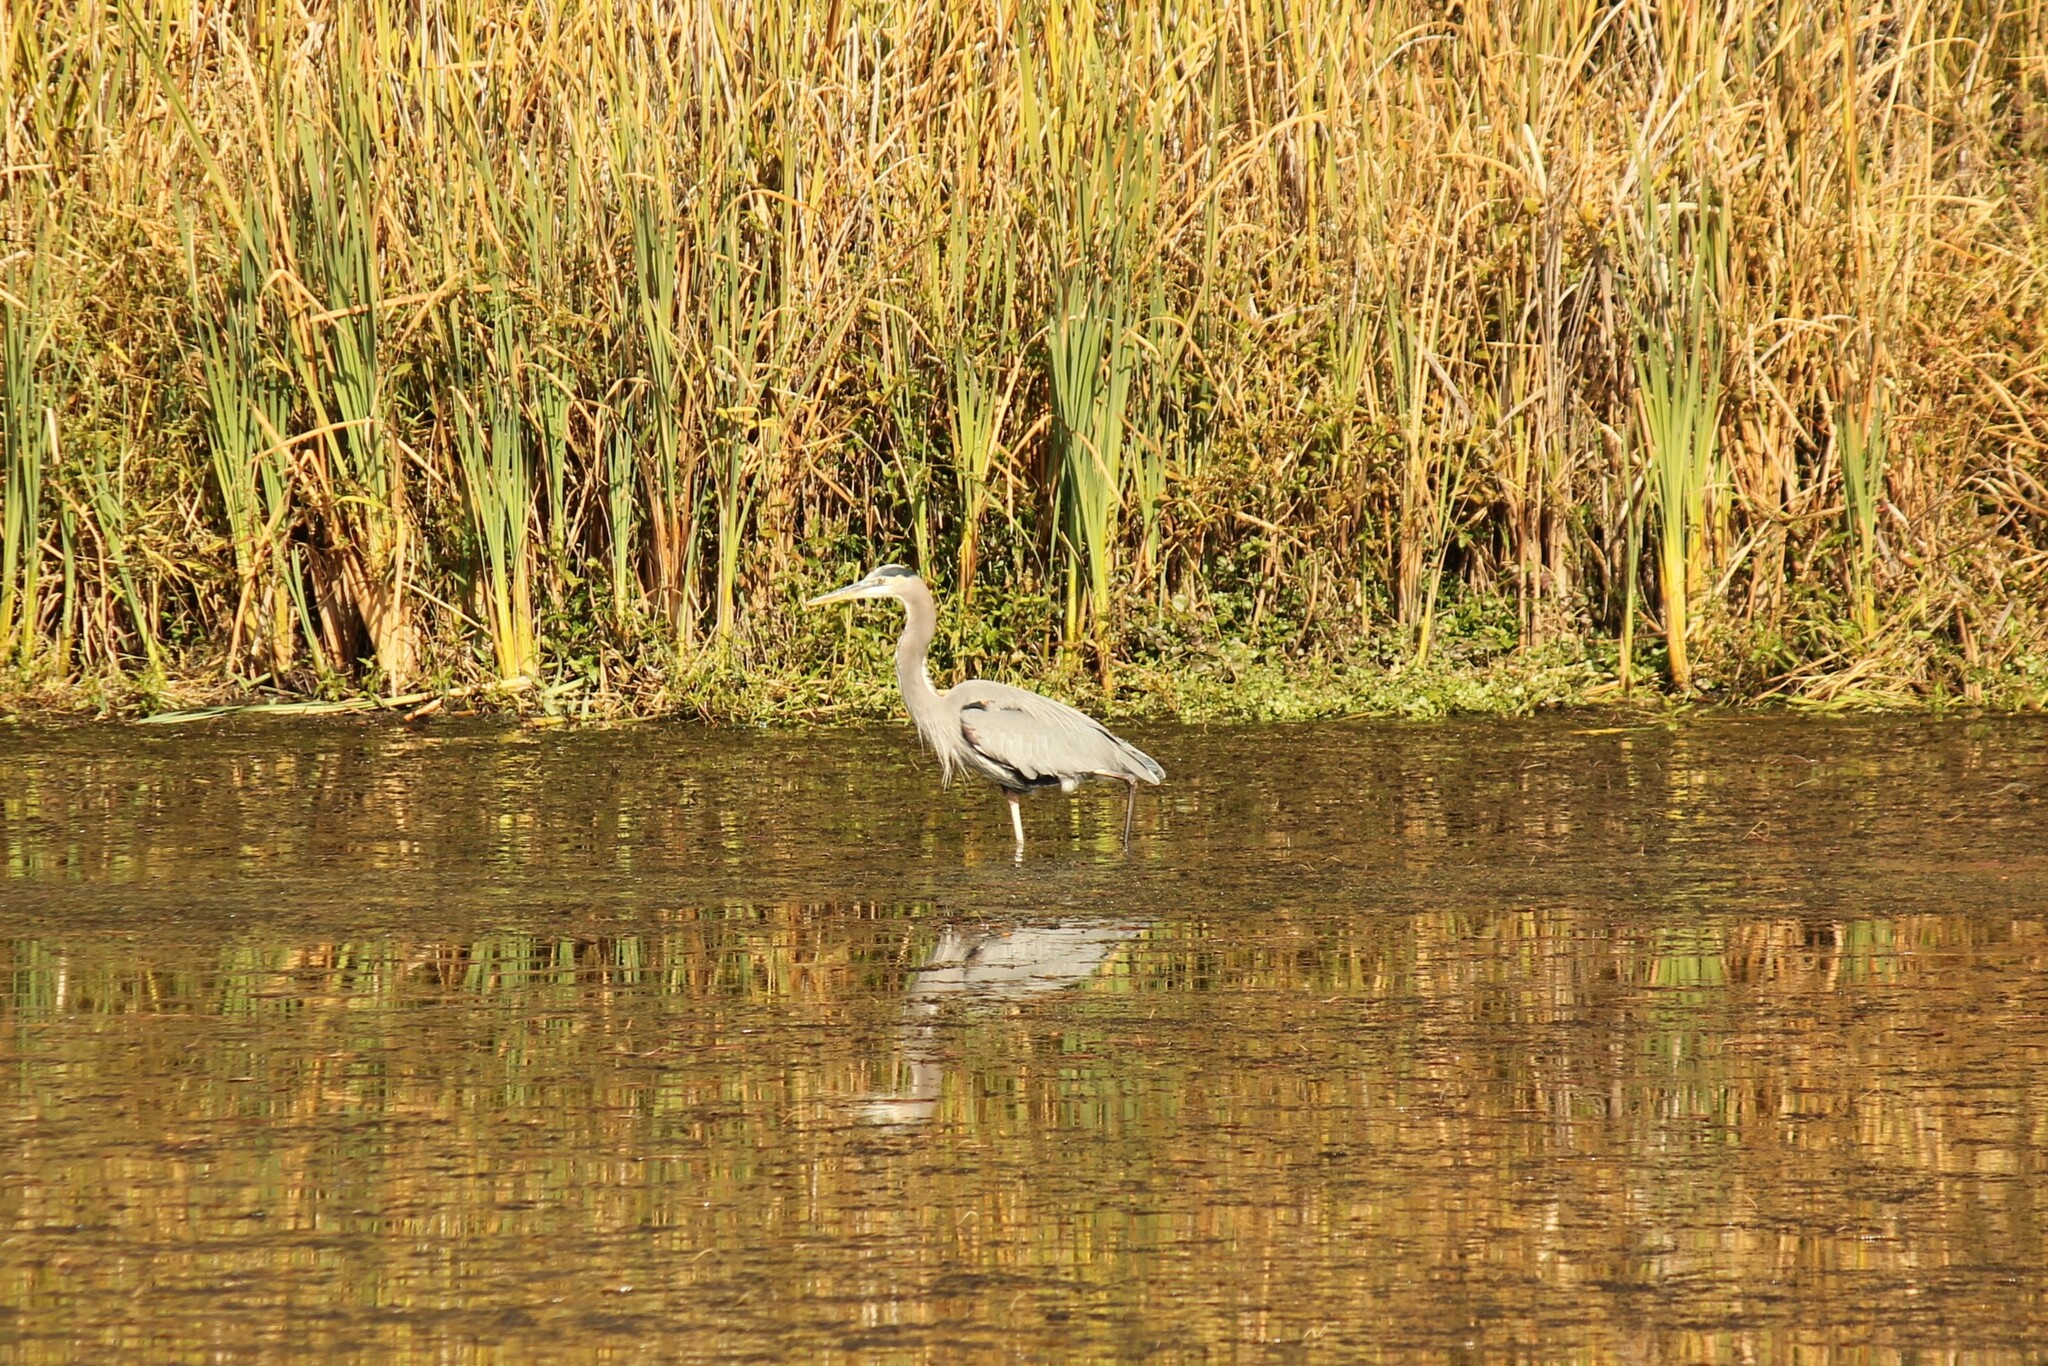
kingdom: Animalia
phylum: Chordata
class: Aves
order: Pelecaniformes
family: Ardeidae
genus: Ardea
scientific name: Ardea herodias
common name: Great blue heron
